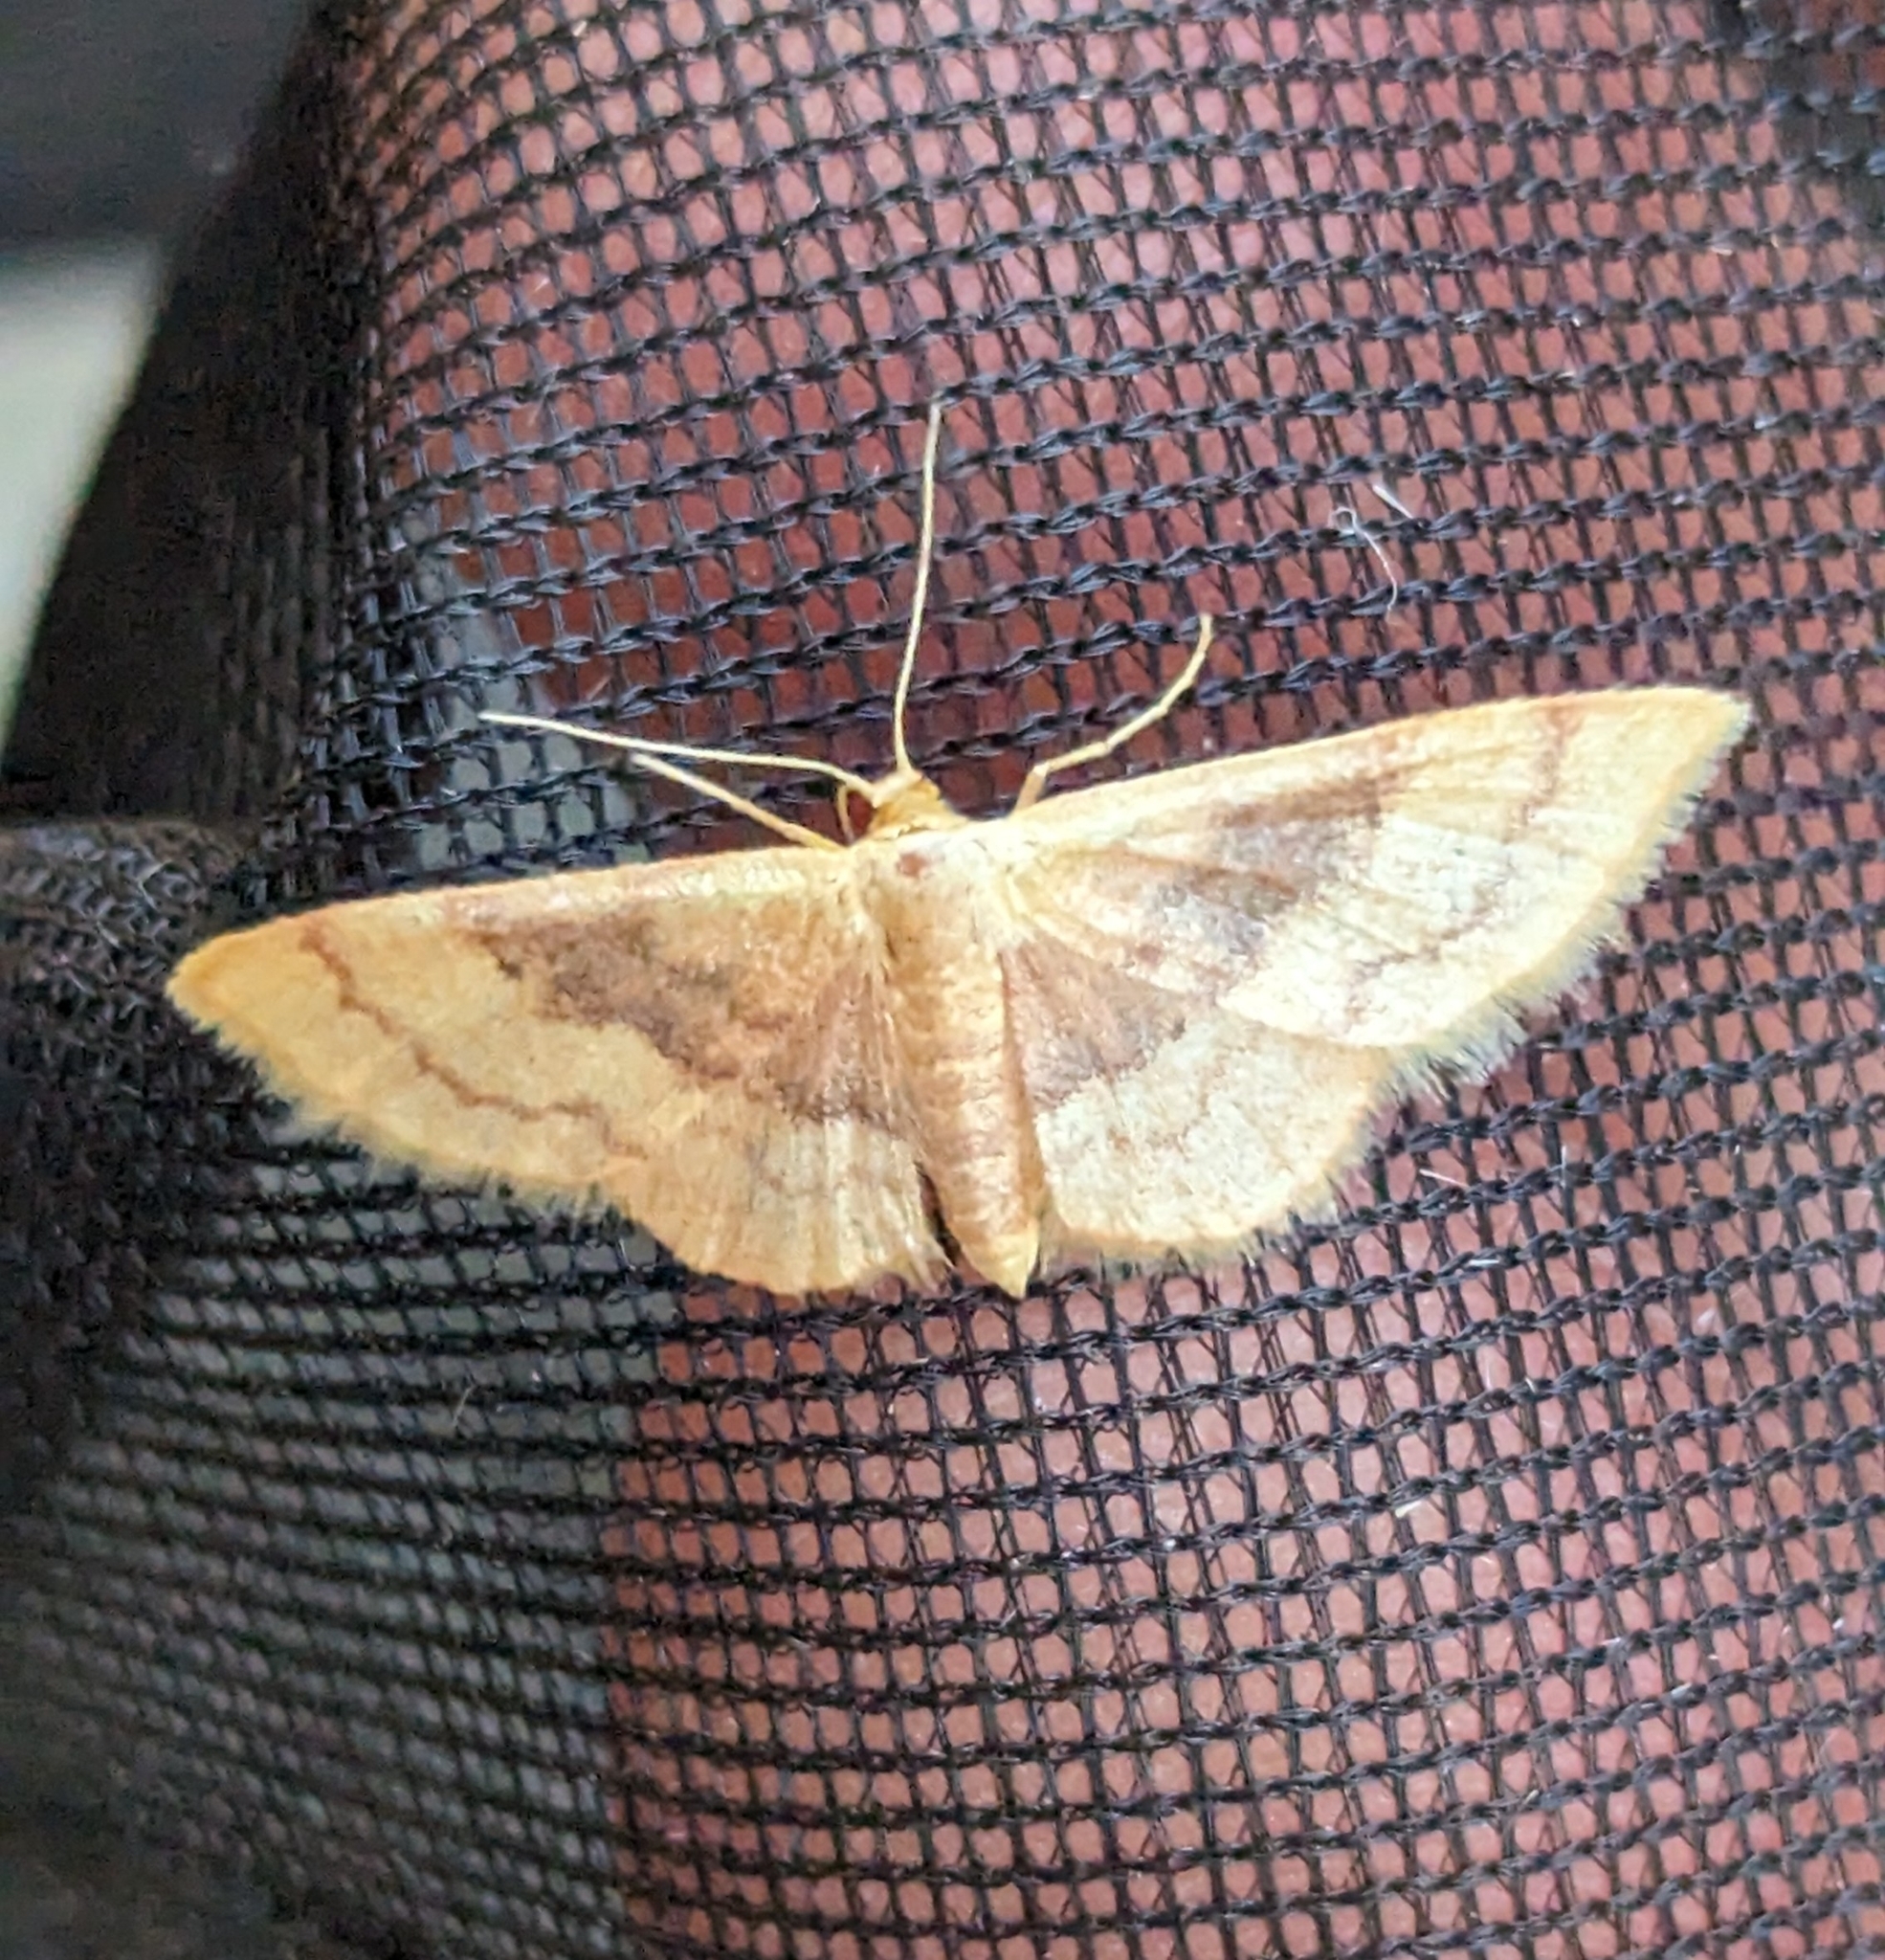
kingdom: Animalia
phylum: Arthropoda
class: Insecta
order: Lepidoptera
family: Geometridae
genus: Idaea
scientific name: Idaea demissaria
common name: Red-bordered wave
